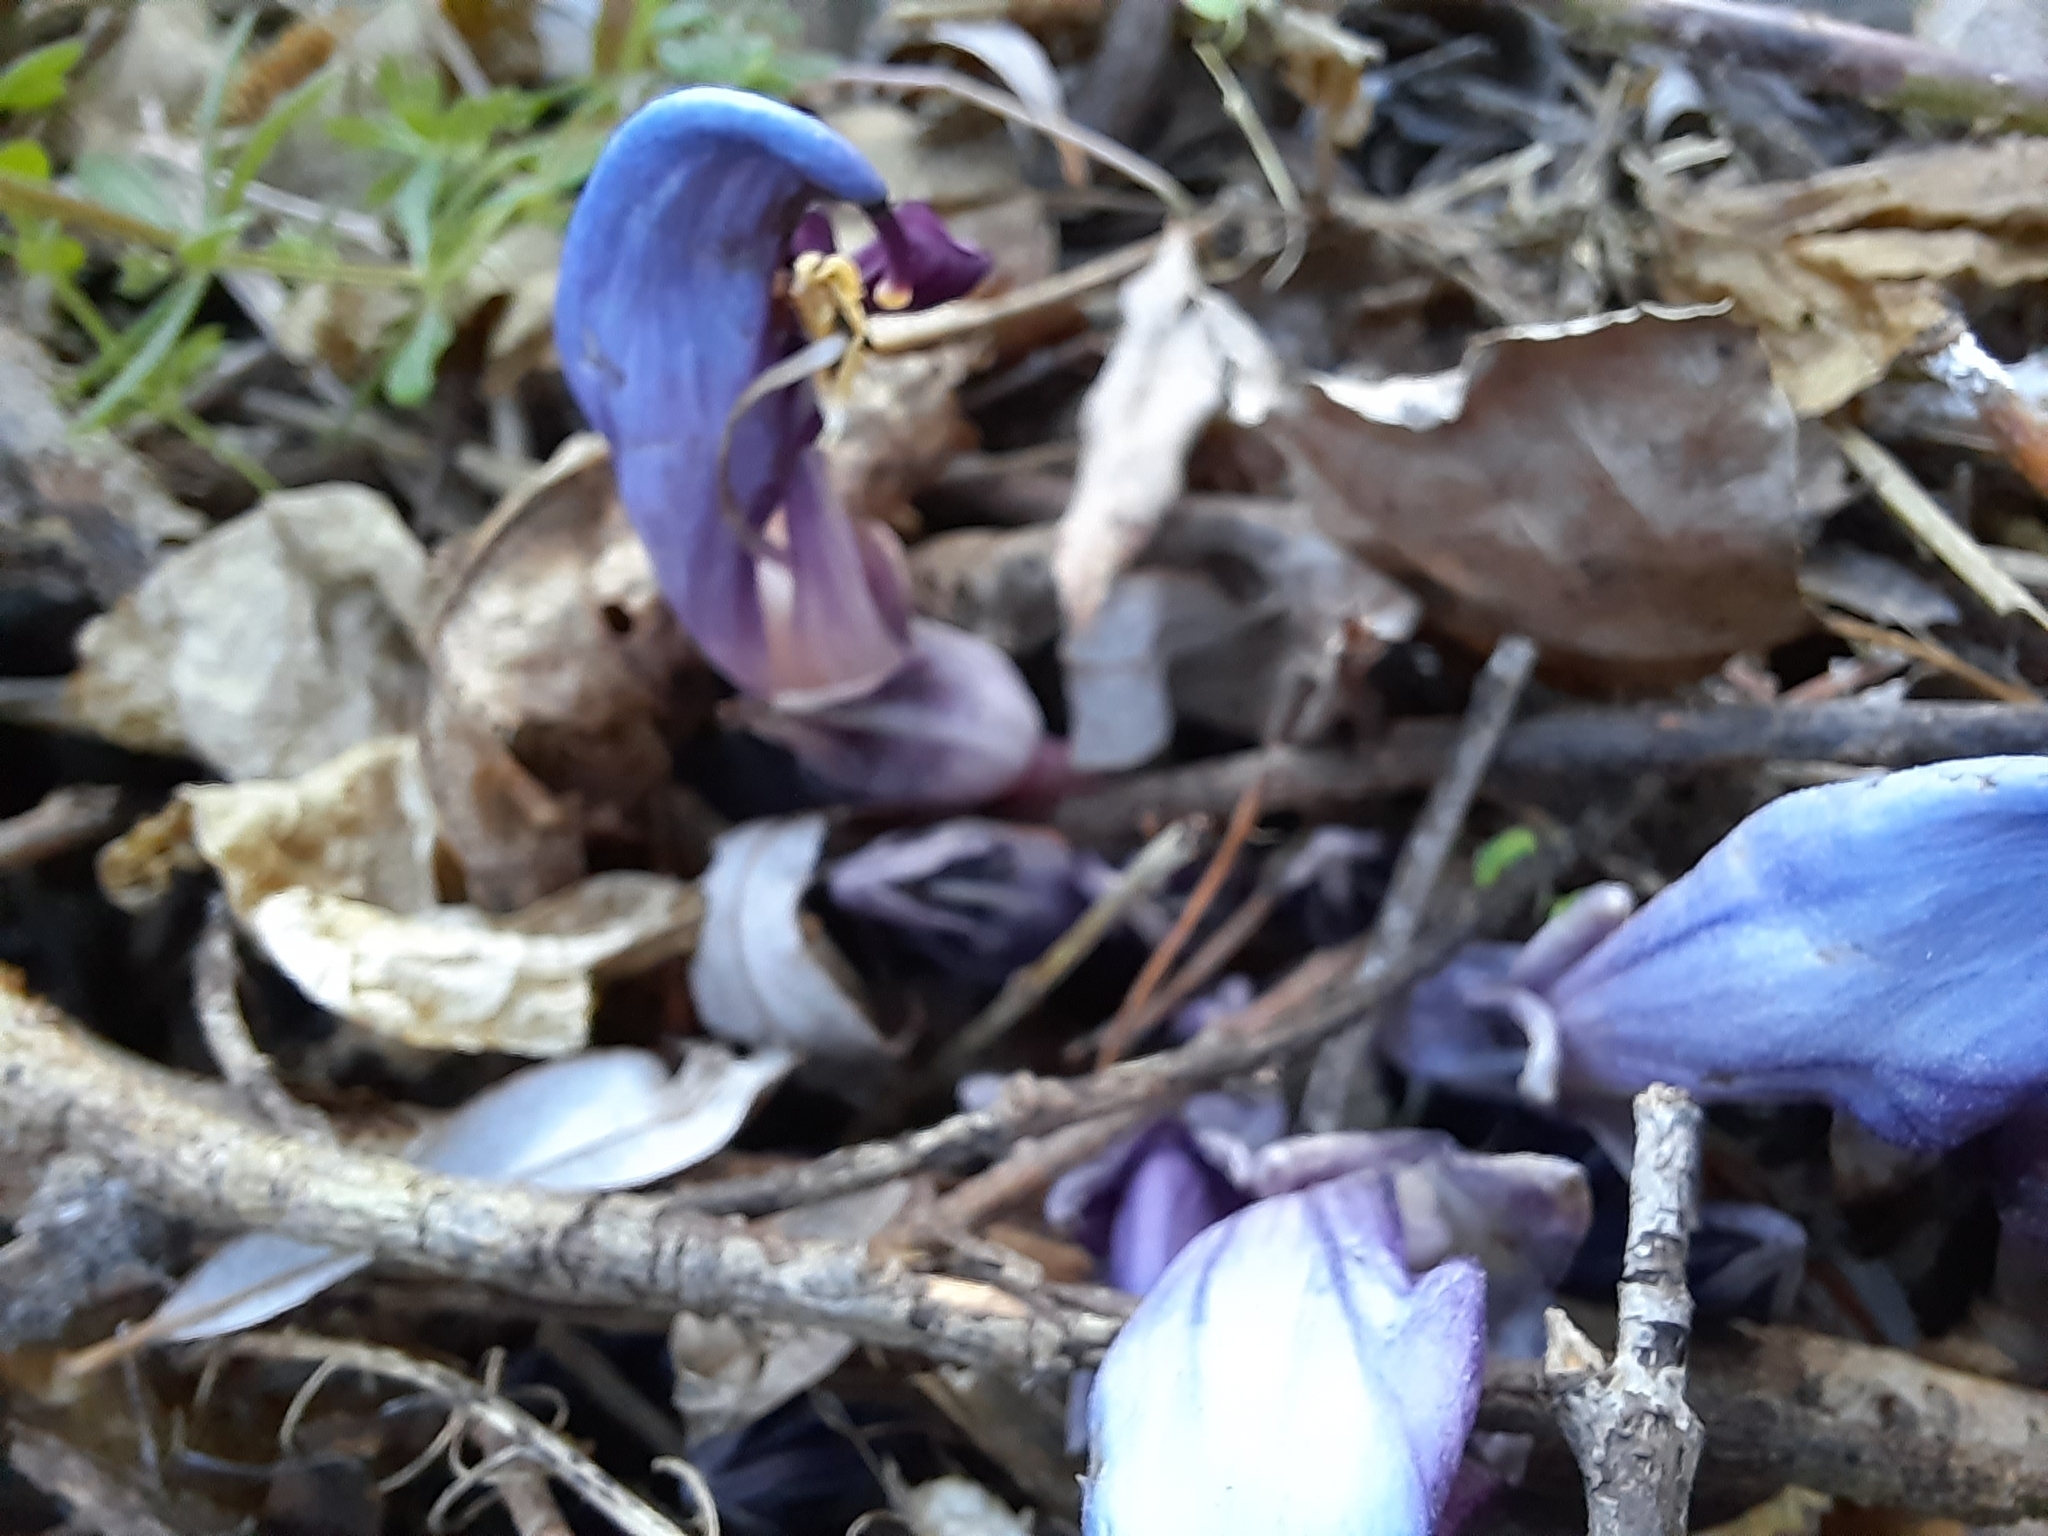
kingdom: Plantae
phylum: Tracheophyta
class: Magnoliopsida
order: Lamiales
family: Orobanchaceae
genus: Lathraea
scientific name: Lathraea clandestina
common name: Purple toothwort
